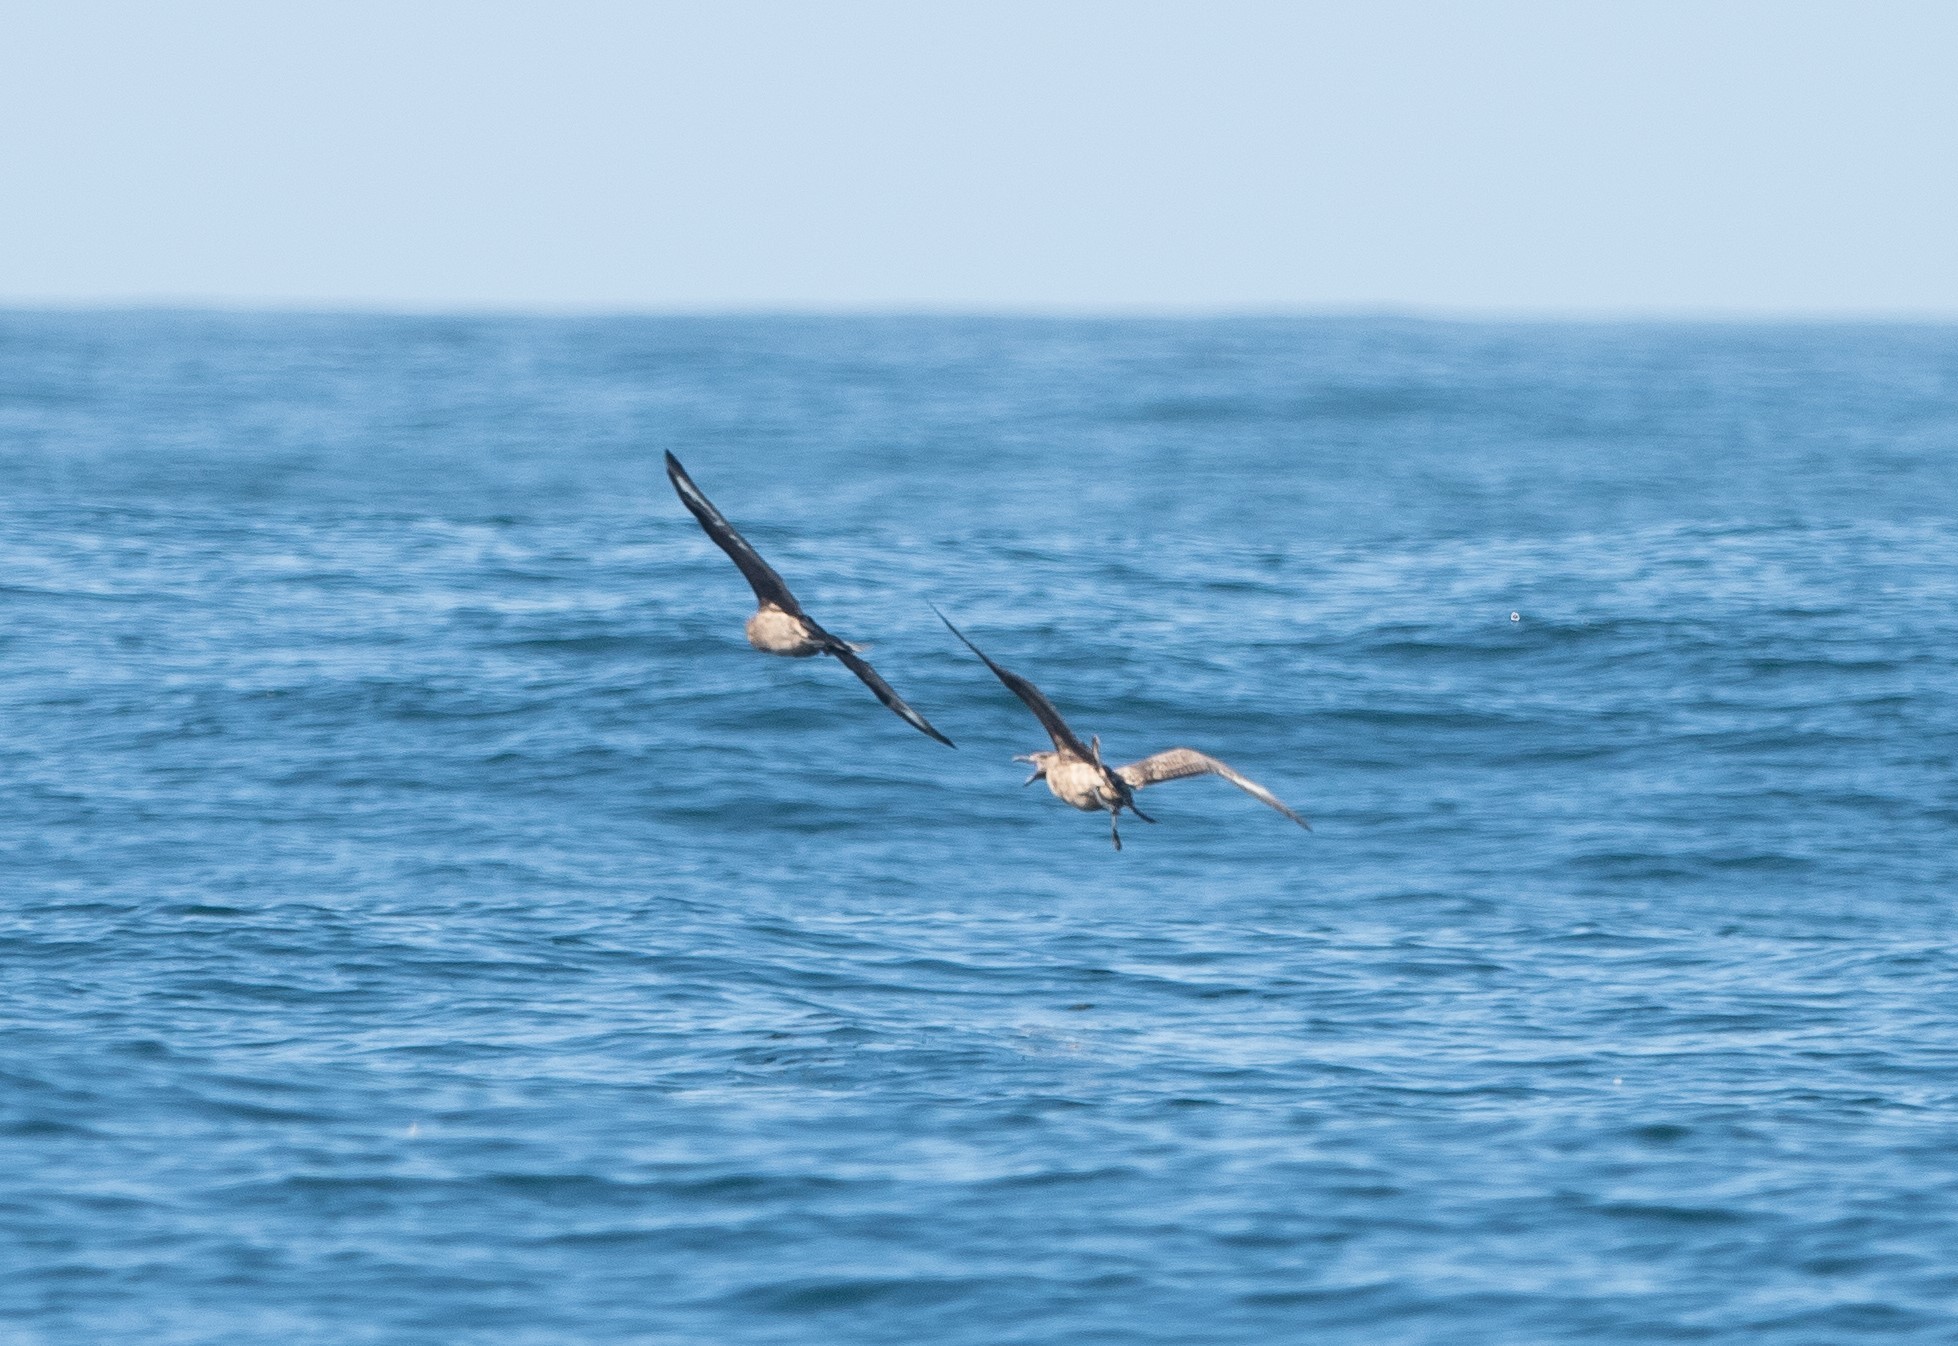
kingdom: Animalia
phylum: Chordata
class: Aves
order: Charadriiformes
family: Stercorariidae
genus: Stercorarius
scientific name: Stercorarius skua
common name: Great skua
